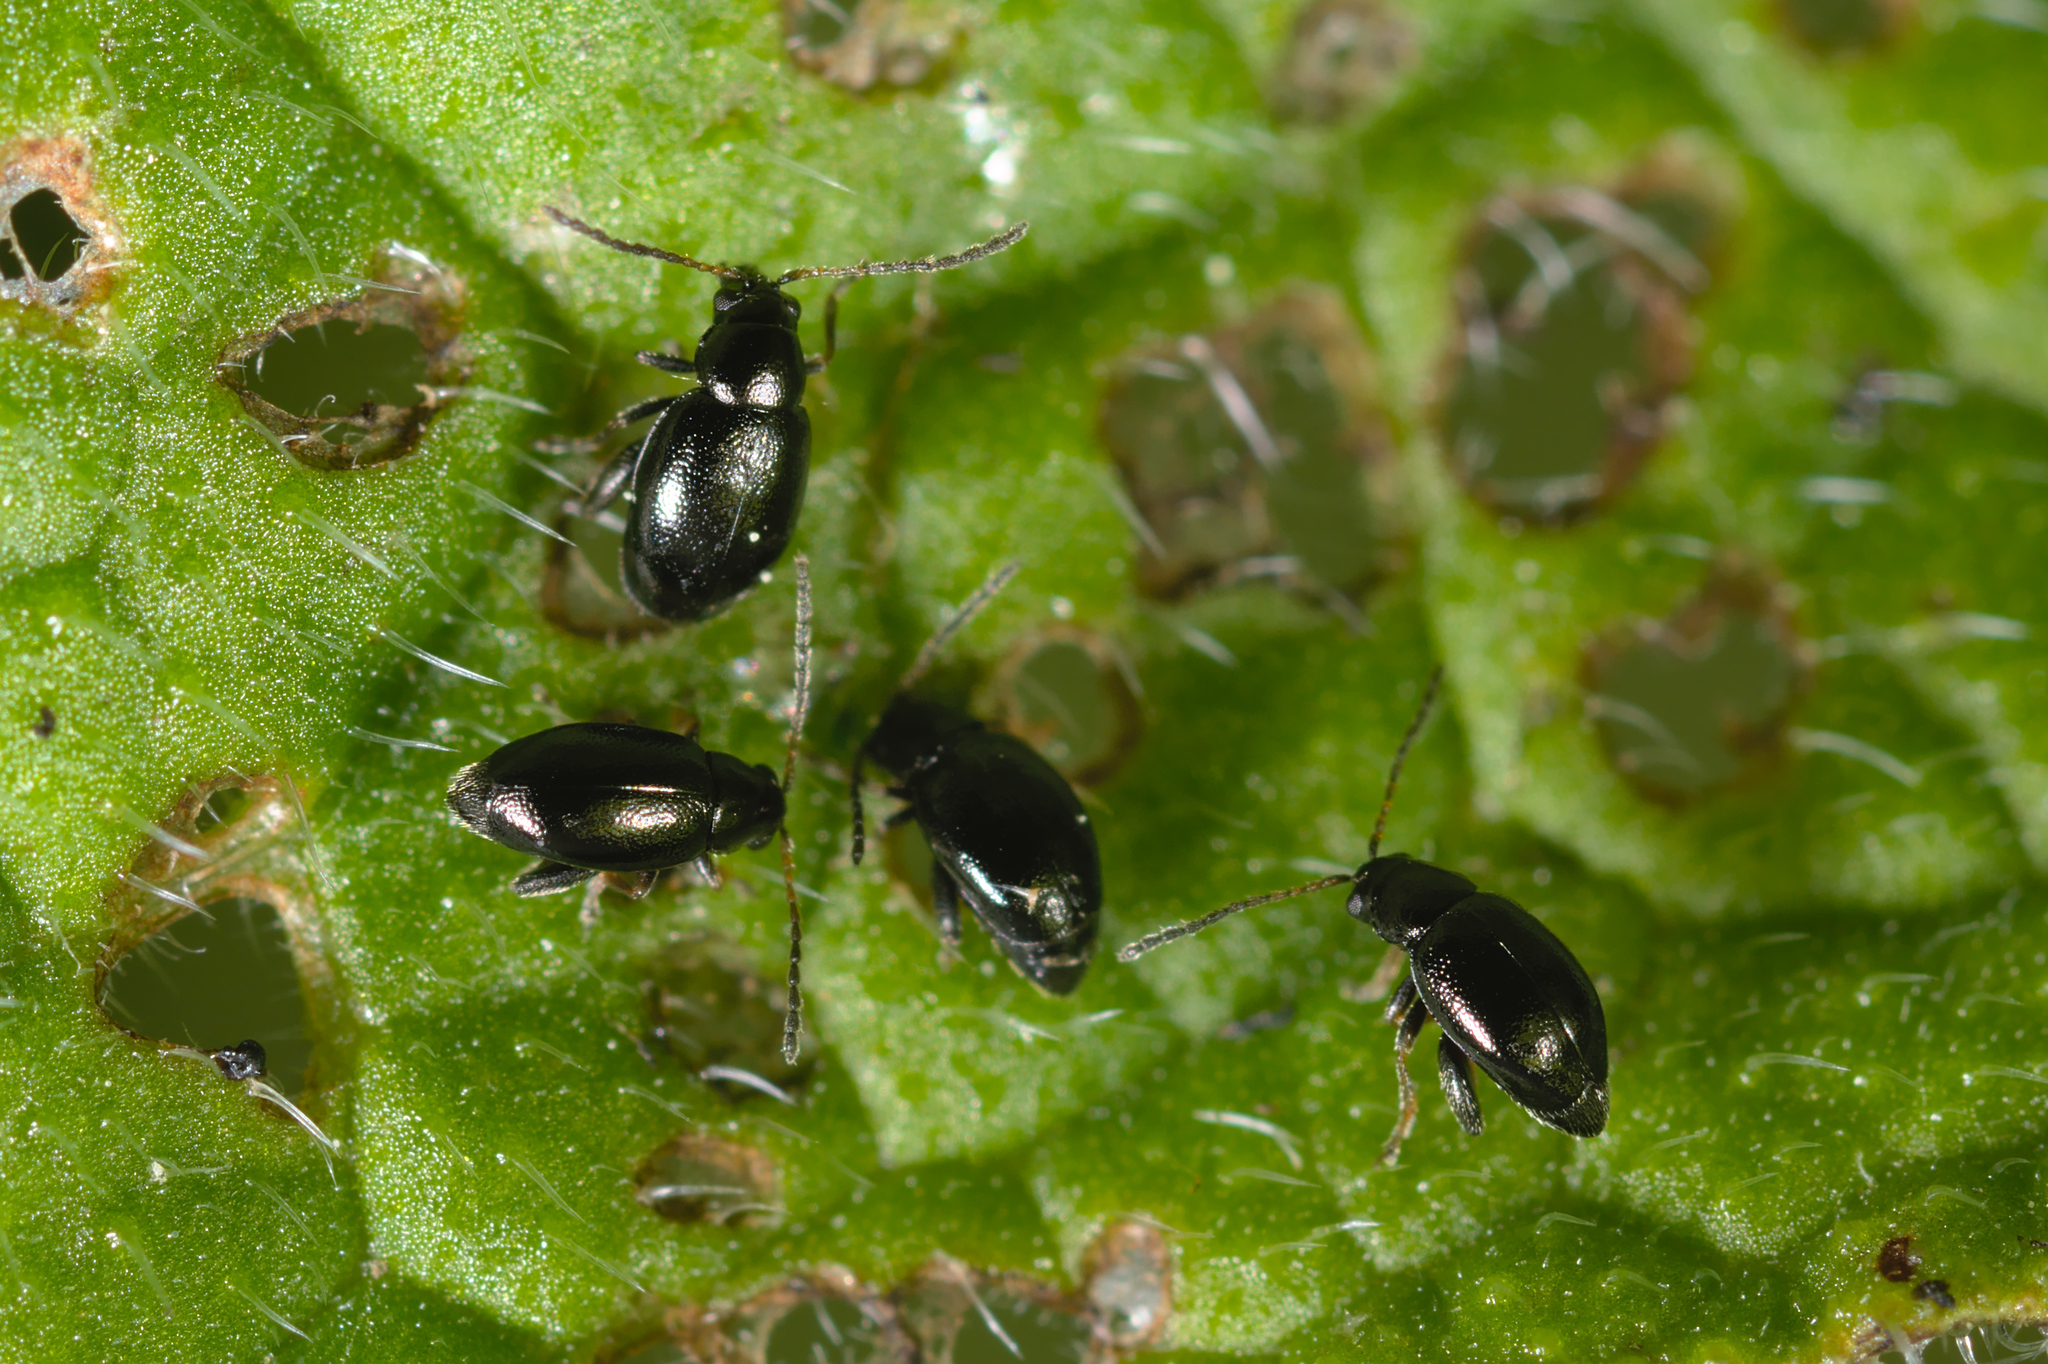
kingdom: Animalia
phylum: Arthropoda
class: Insecta
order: Coleoptera
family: Chrysomelidae
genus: Longitarsus
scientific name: Longitarsus anchusae
